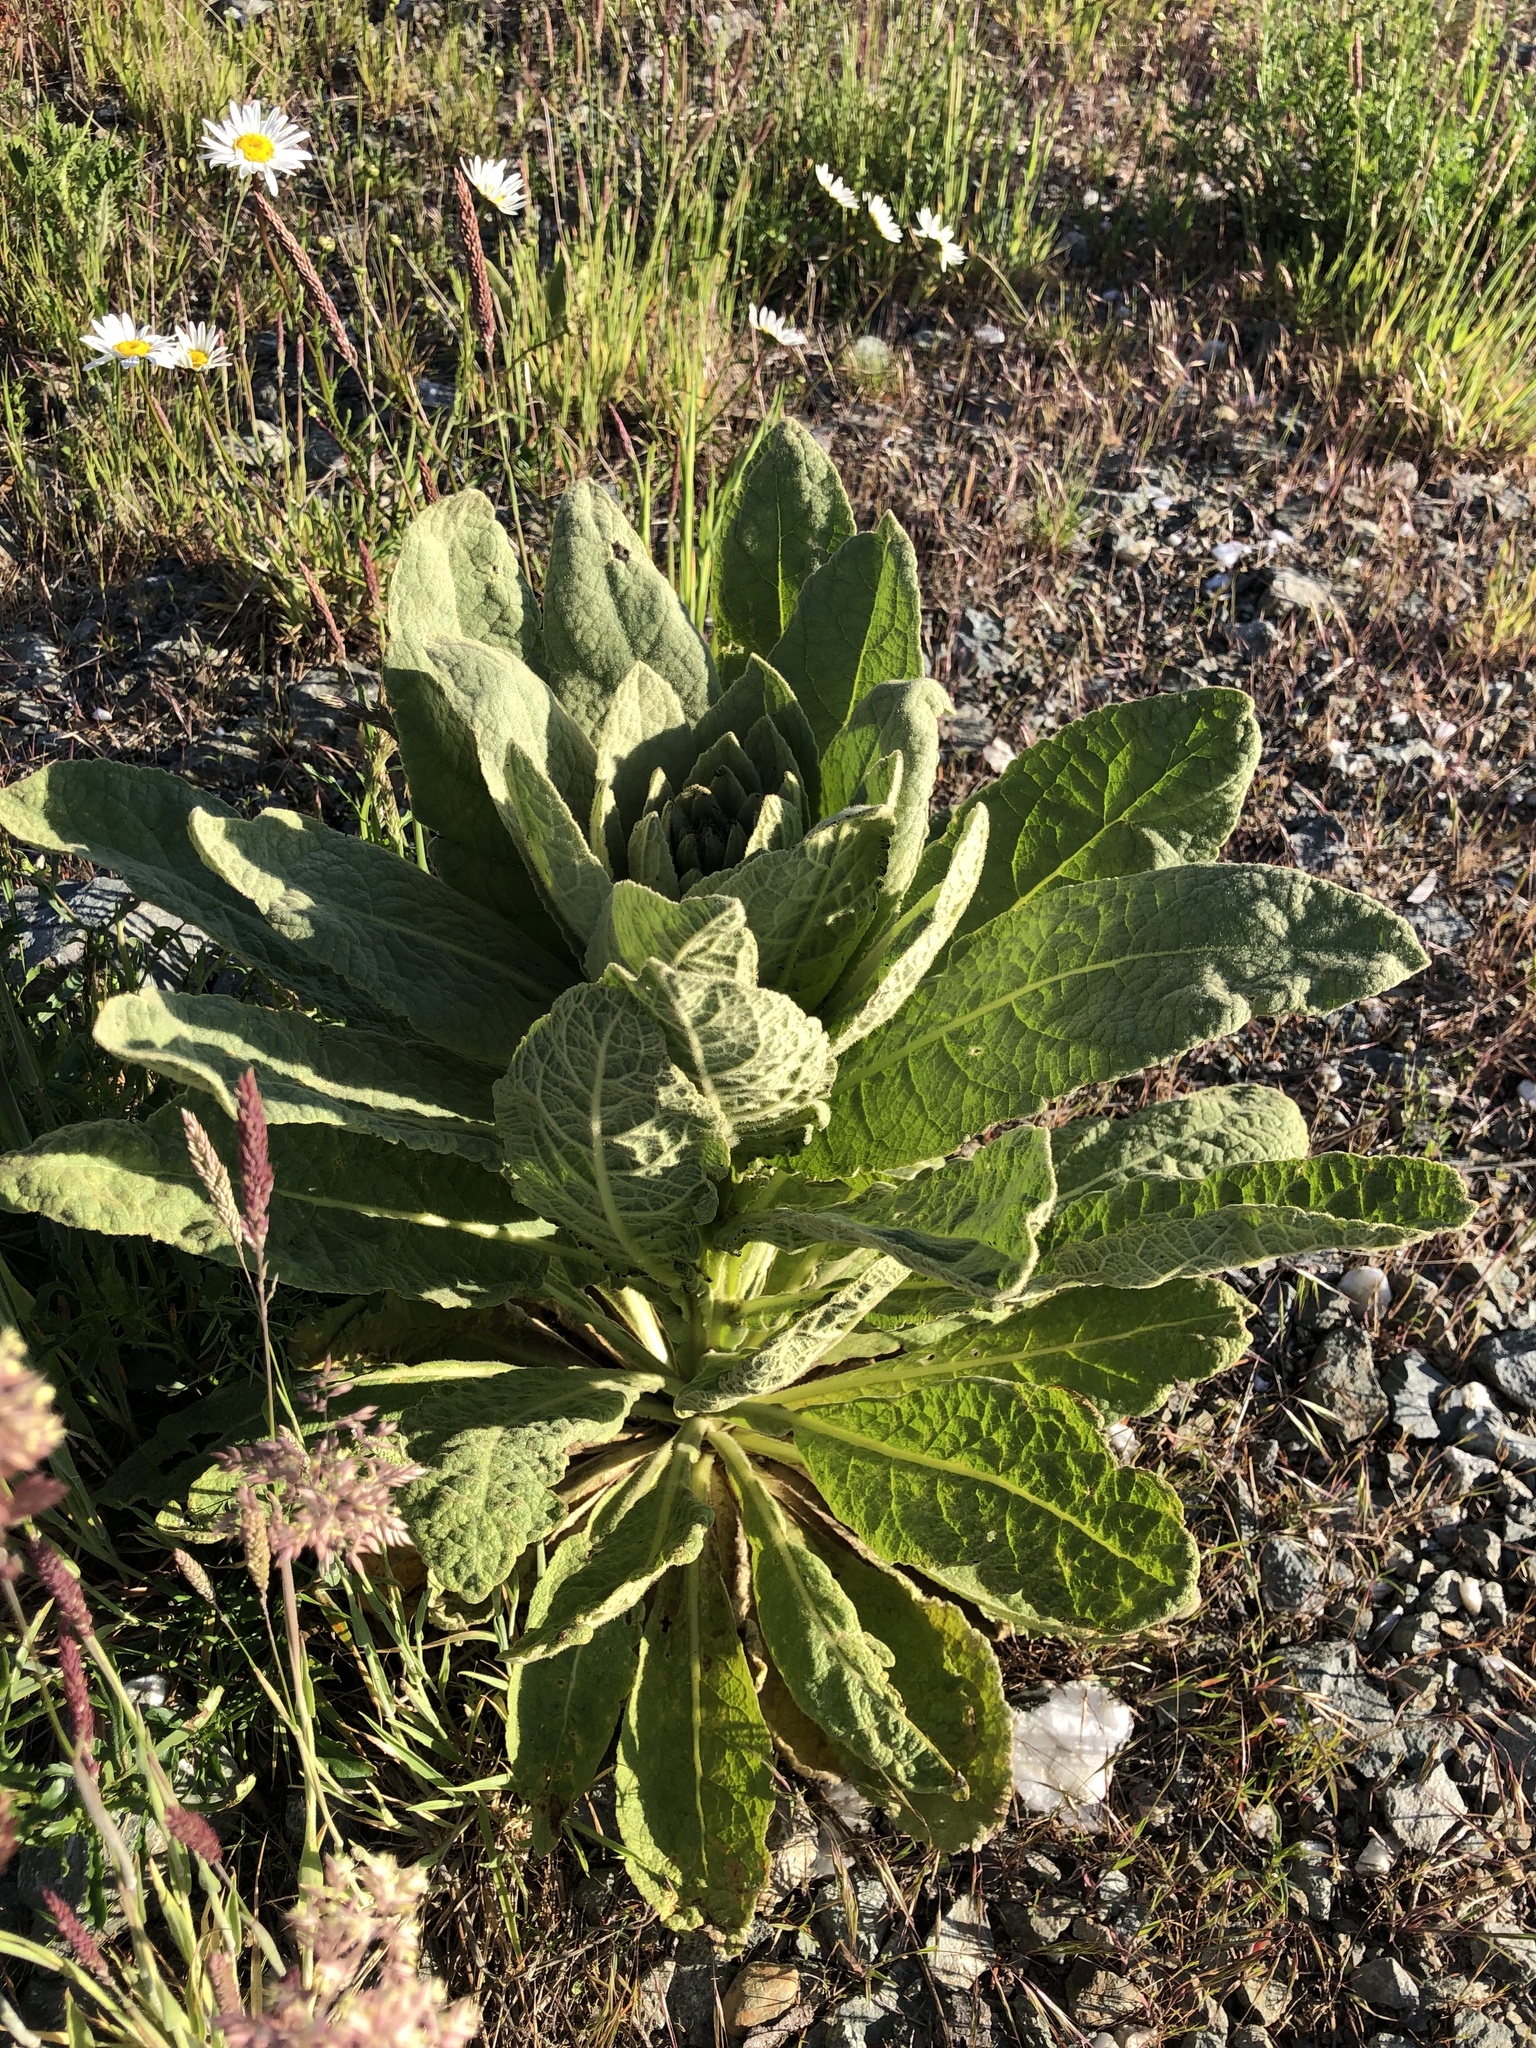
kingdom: Plantae
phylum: Tracheophyta
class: Magnoliopsida
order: Lamiales
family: Scrophulariaceae
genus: Verbascum
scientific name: Verbascum thapsus
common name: Common mullein
